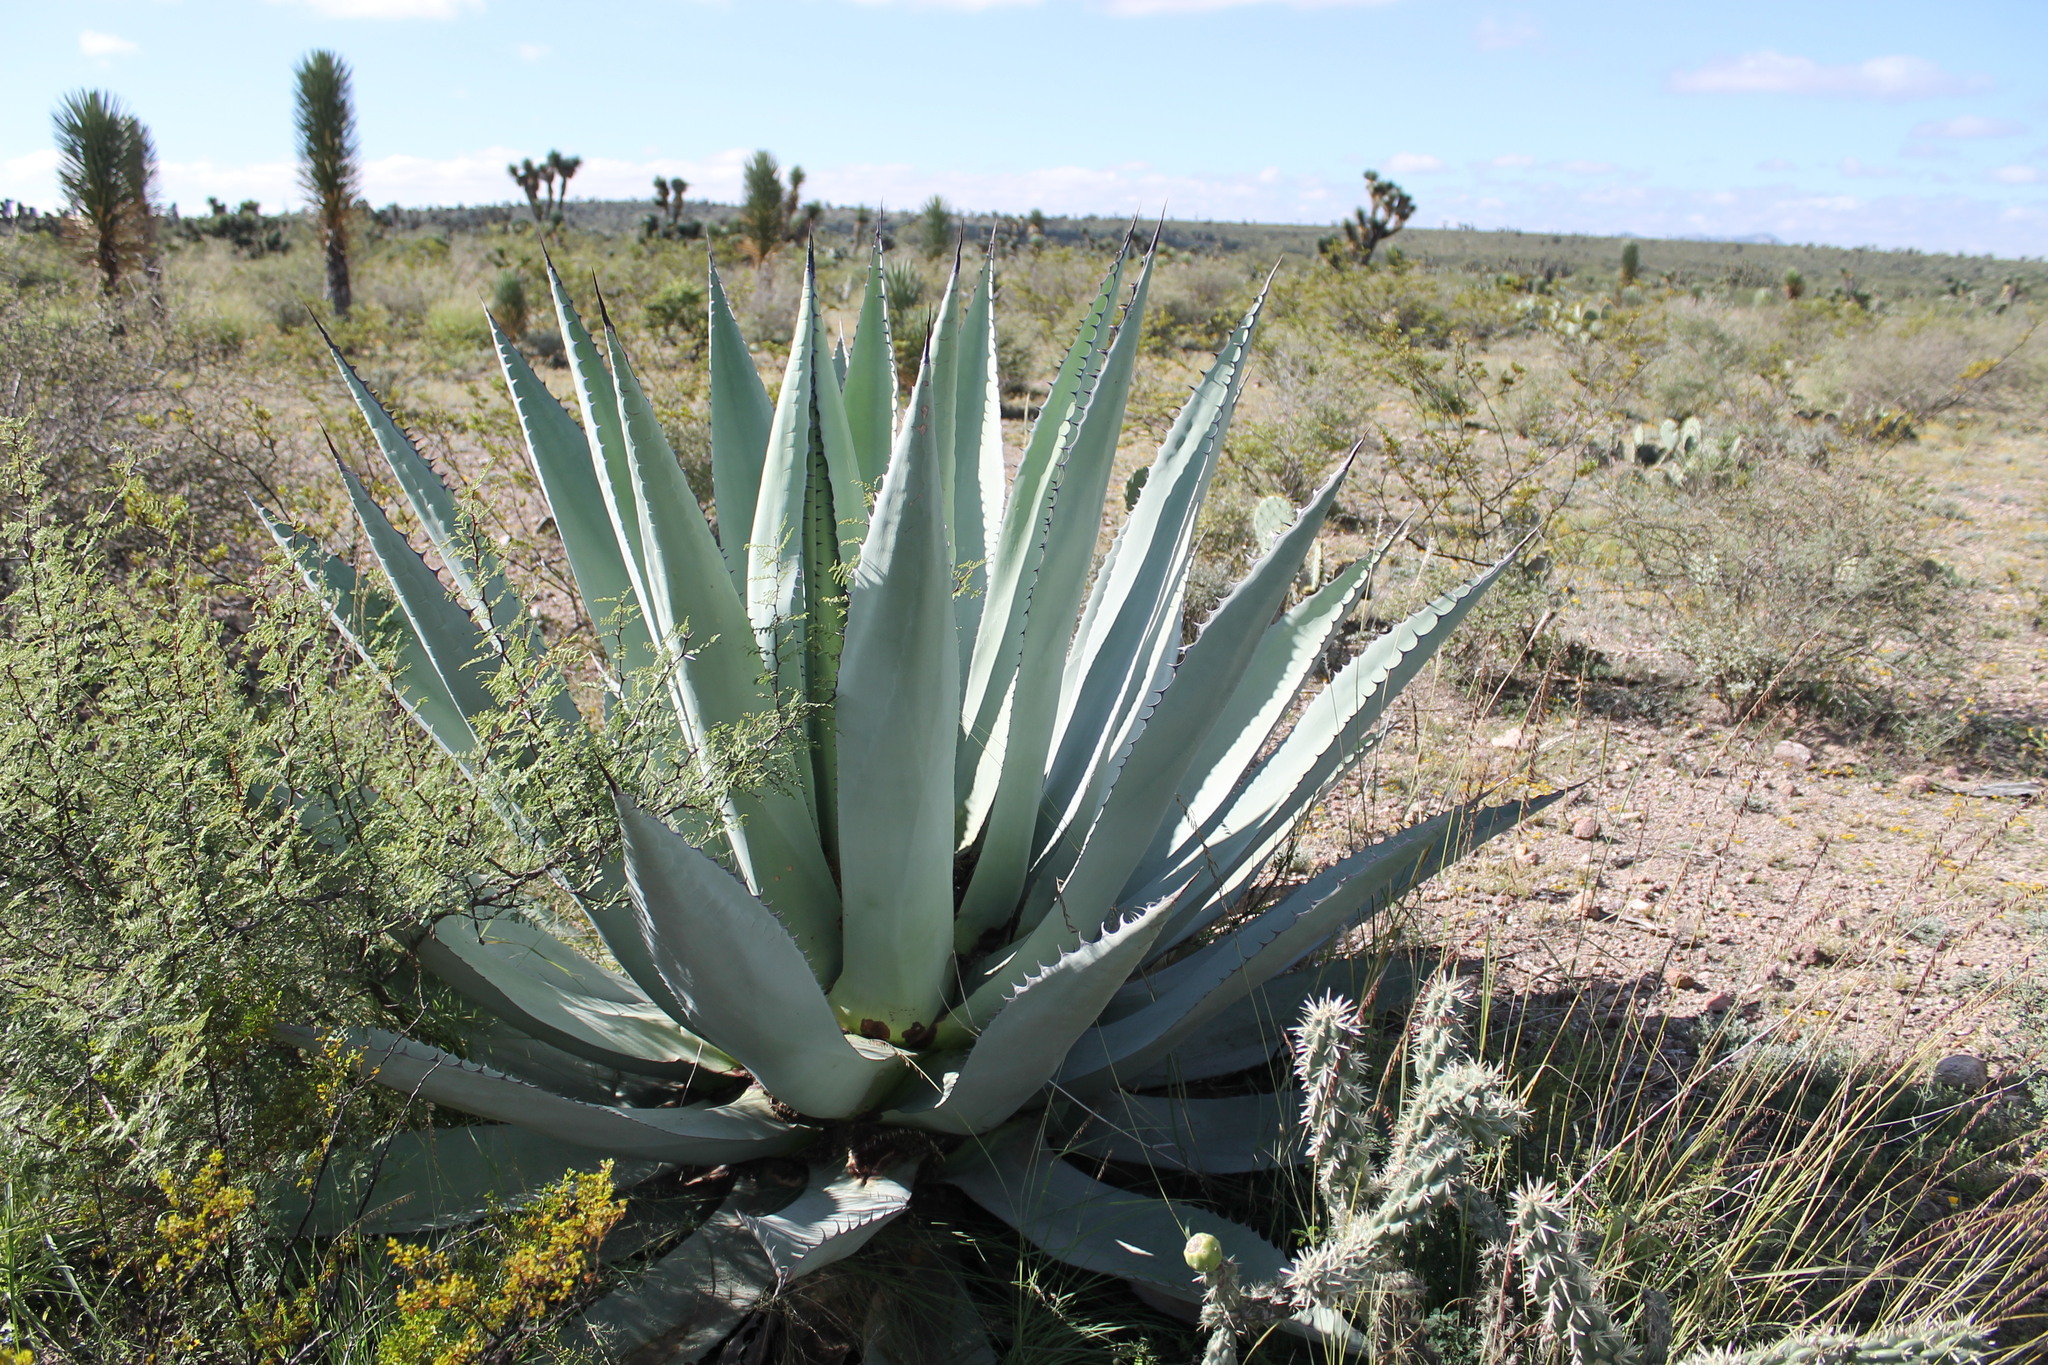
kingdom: Plantae
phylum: Tracheophyta
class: Liliopsida
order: Asparagales
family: Asparagaceae
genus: Agave
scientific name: Agave applanata
